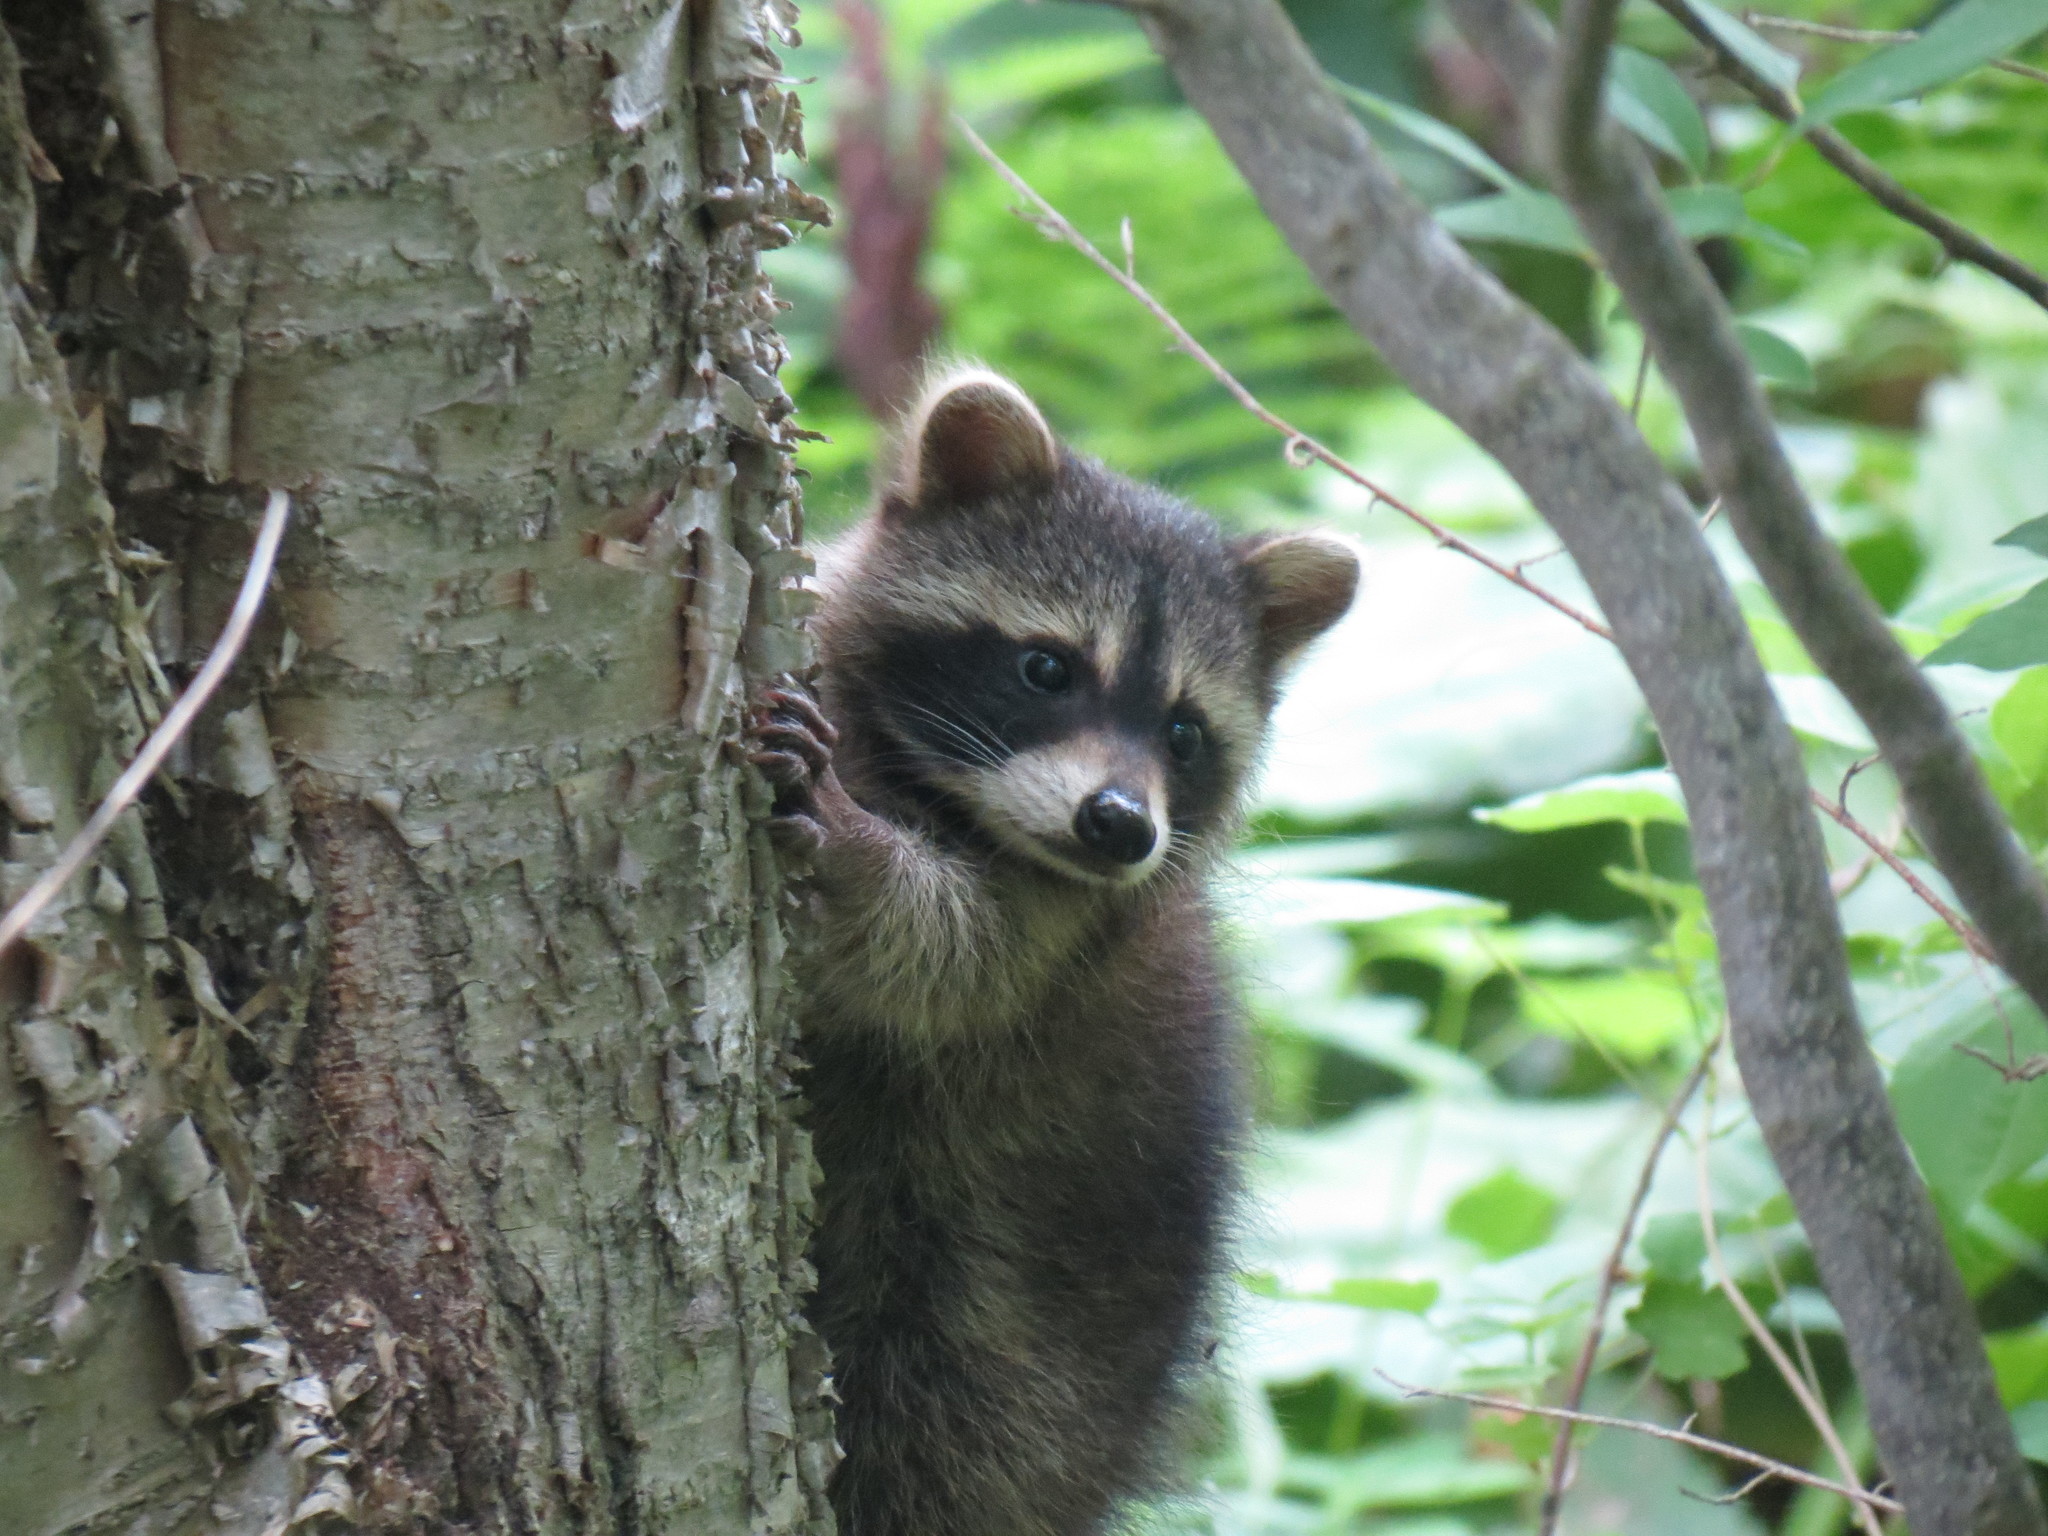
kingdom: Animalia
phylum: Chordata
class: Mammalia
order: Carnivora
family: Procyonidae
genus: Procyon
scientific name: Procyon lotor
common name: Raccoon
